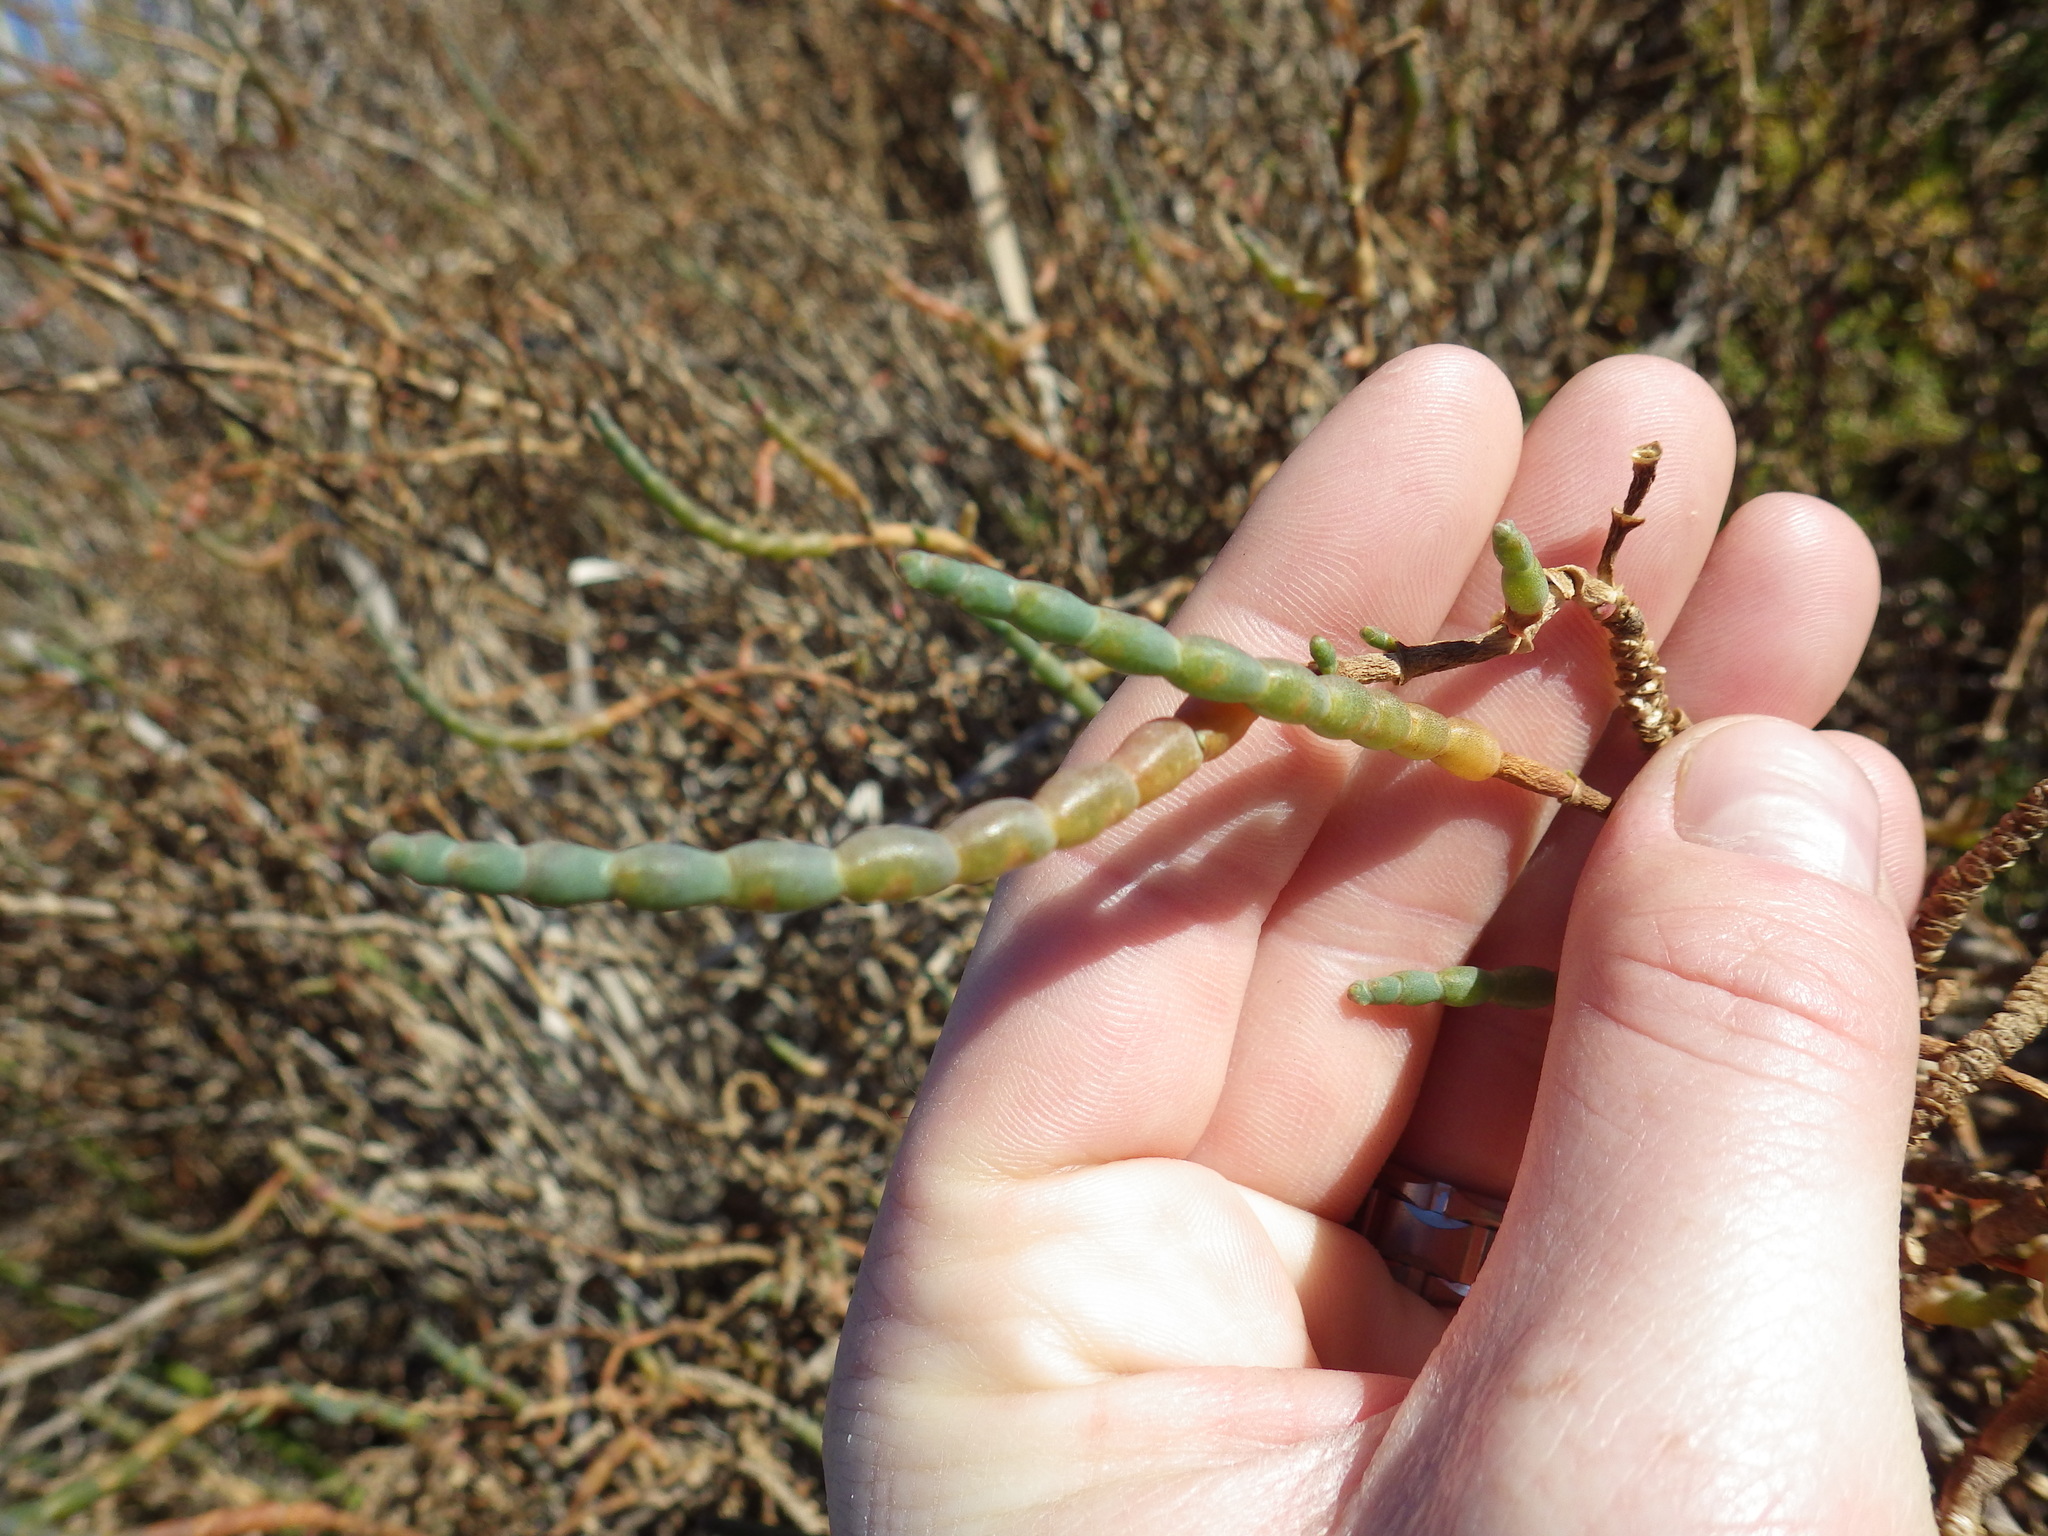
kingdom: Plantae
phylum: Tracheophyta
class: Magnoliopsida
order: Caryophyllales
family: Amaranthaceae
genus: Salicornia
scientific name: Salicornia pacifica
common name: Pacific glasswort
